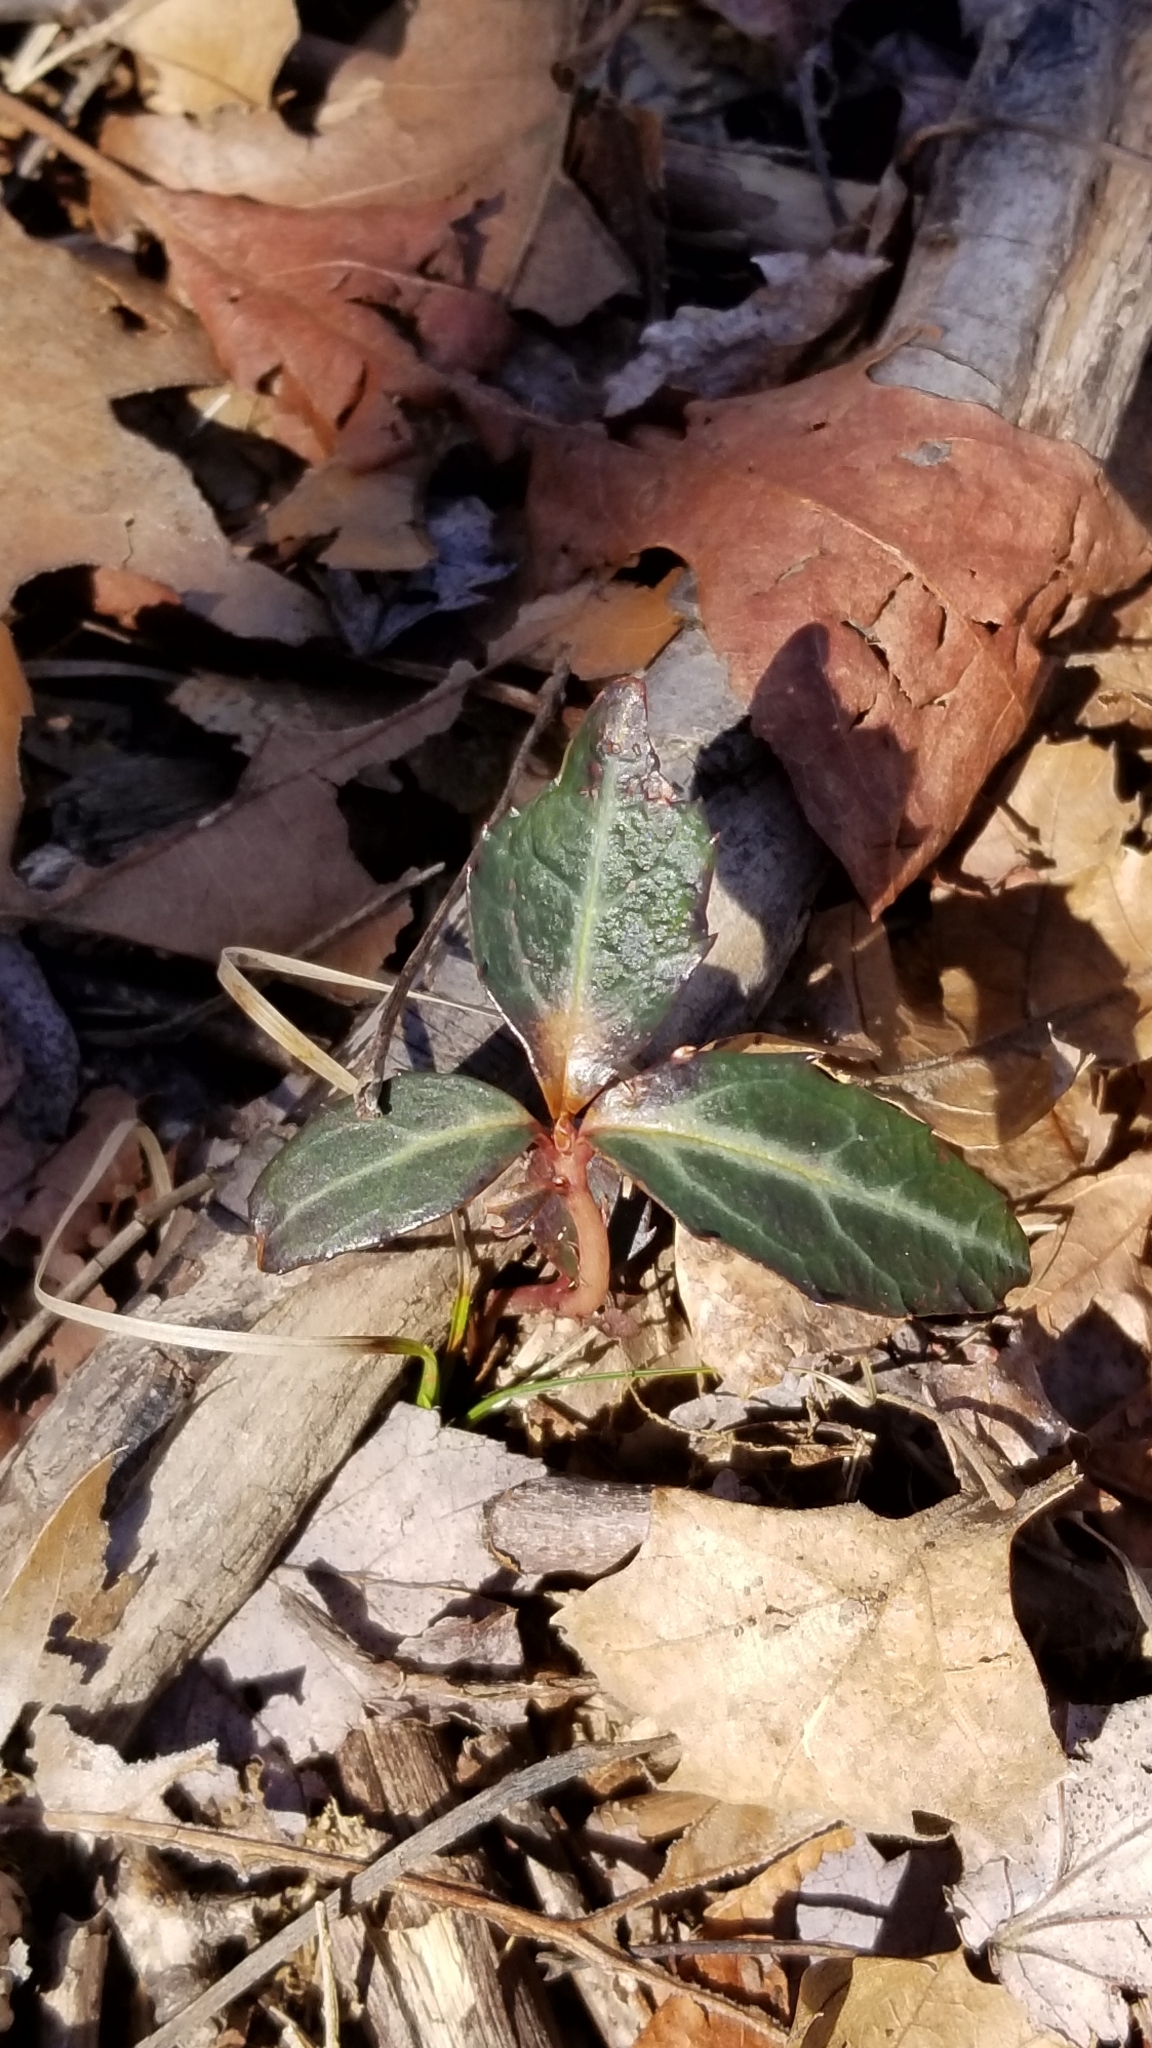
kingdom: Plantae
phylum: Tracheophyta
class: Magnoliopsida
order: Ericales
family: Ericaceae
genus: Chimaphila
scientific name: Chimaphila maculata
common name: Spotted pipsissewa
